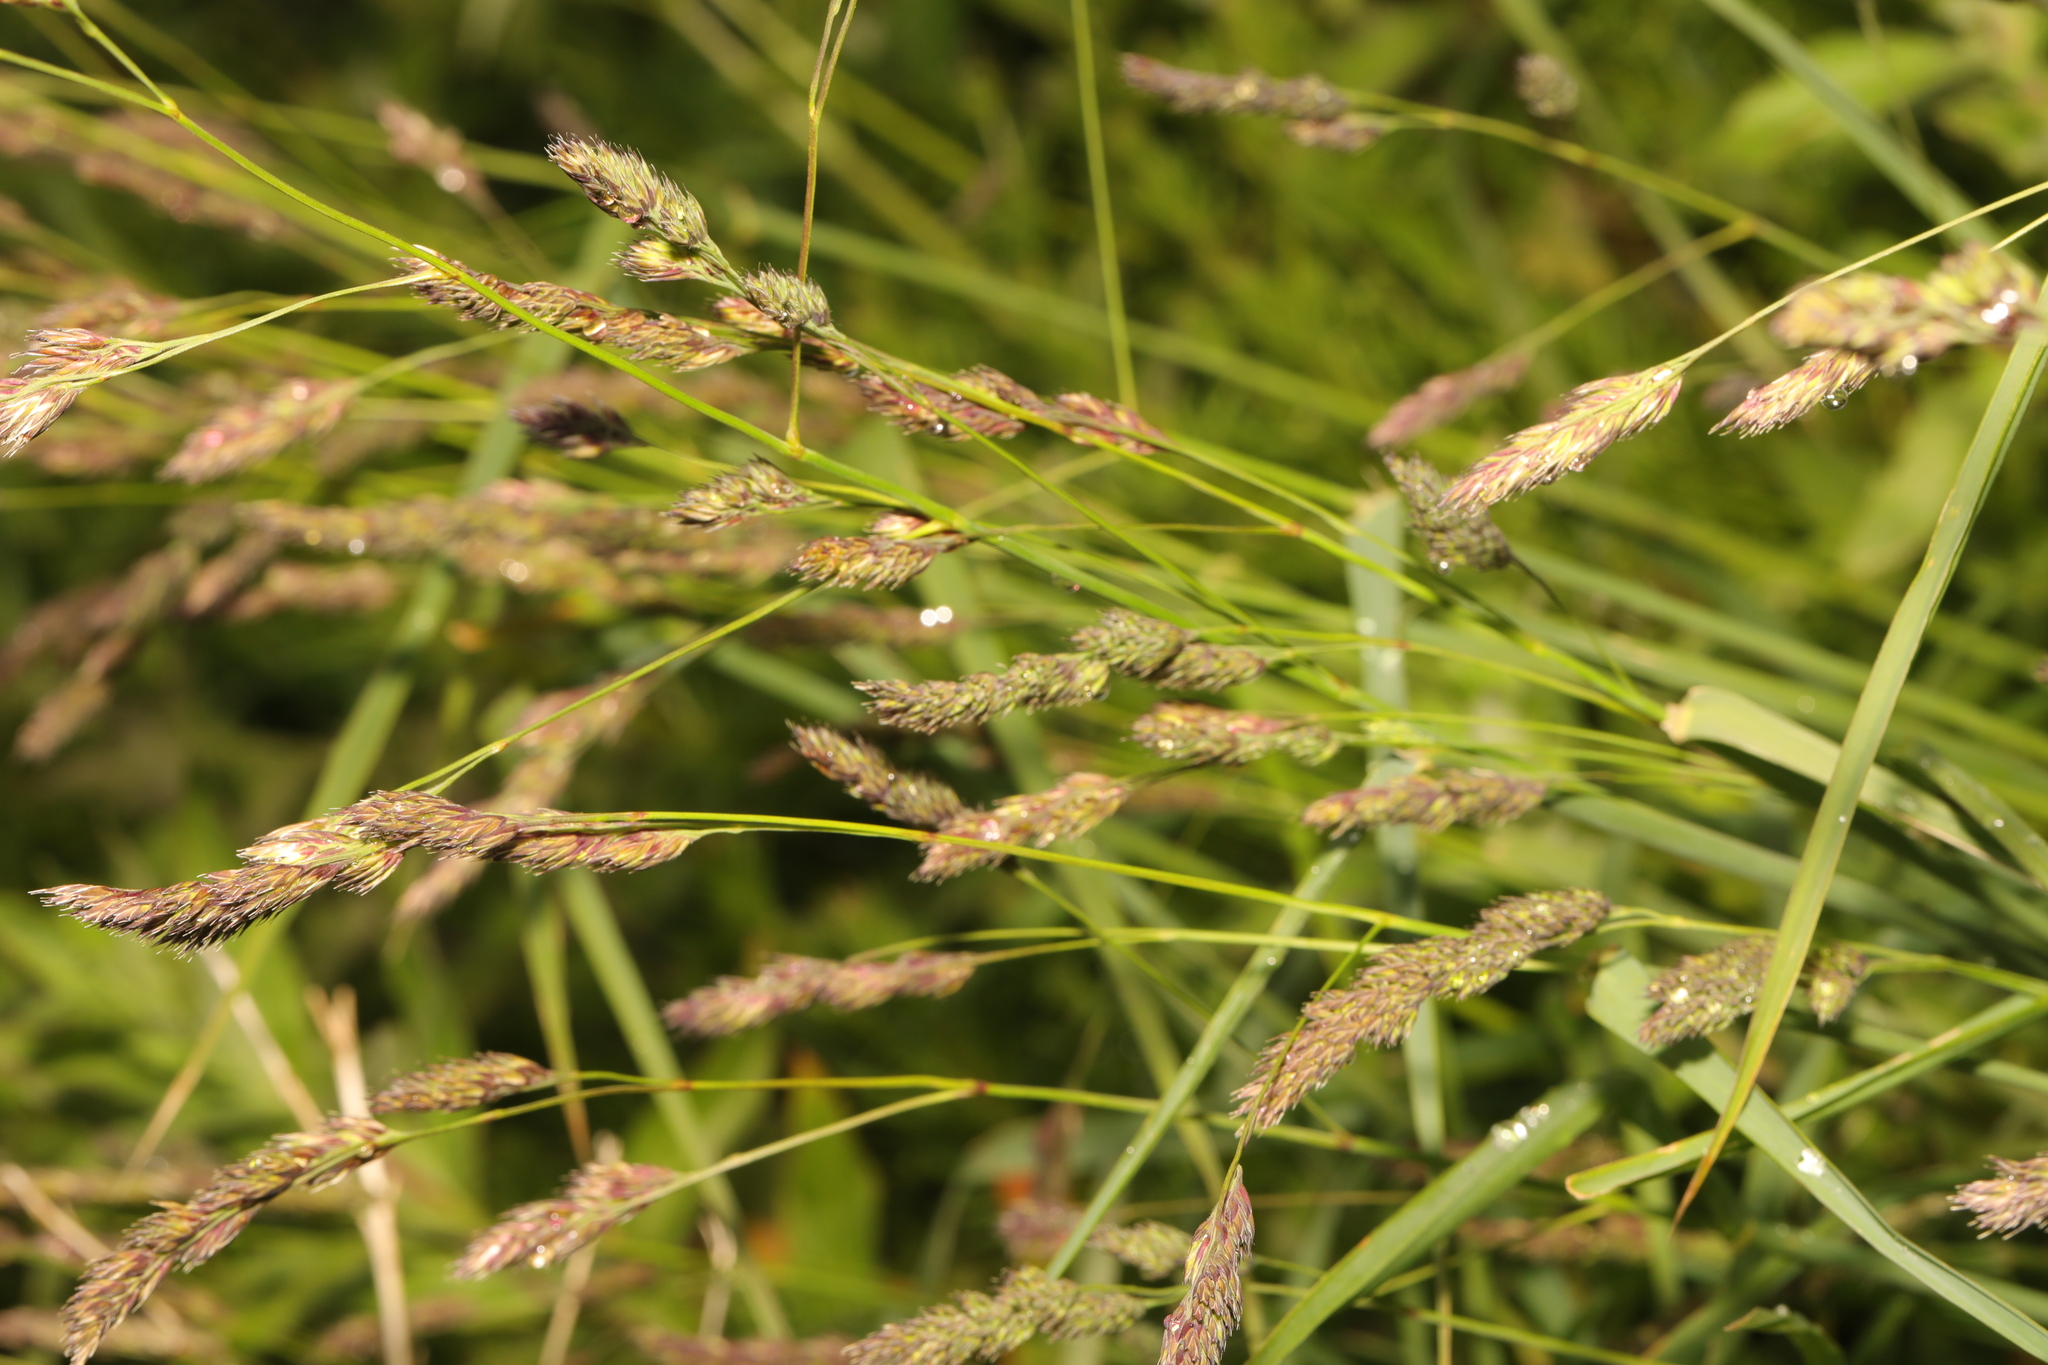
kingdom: Plantae
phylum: Tracheophyta
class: Liliopsida
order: Poales
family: Poaceae
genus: Dactylis
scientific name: Dactylis glomerata
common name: Orchardgrass
